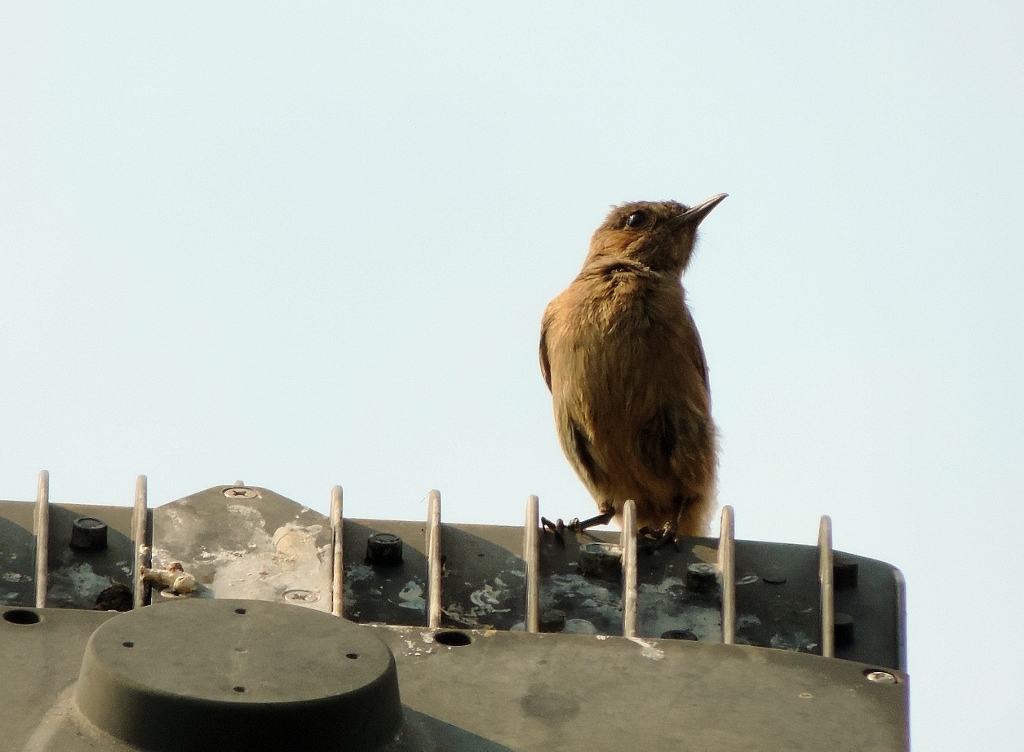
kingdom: Animalia
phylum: Chordata
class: Aves
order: Passeriformes
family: Muscicapidae
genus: Oenanthe
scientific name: Oenanthe familiaris
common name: Familiar chat
